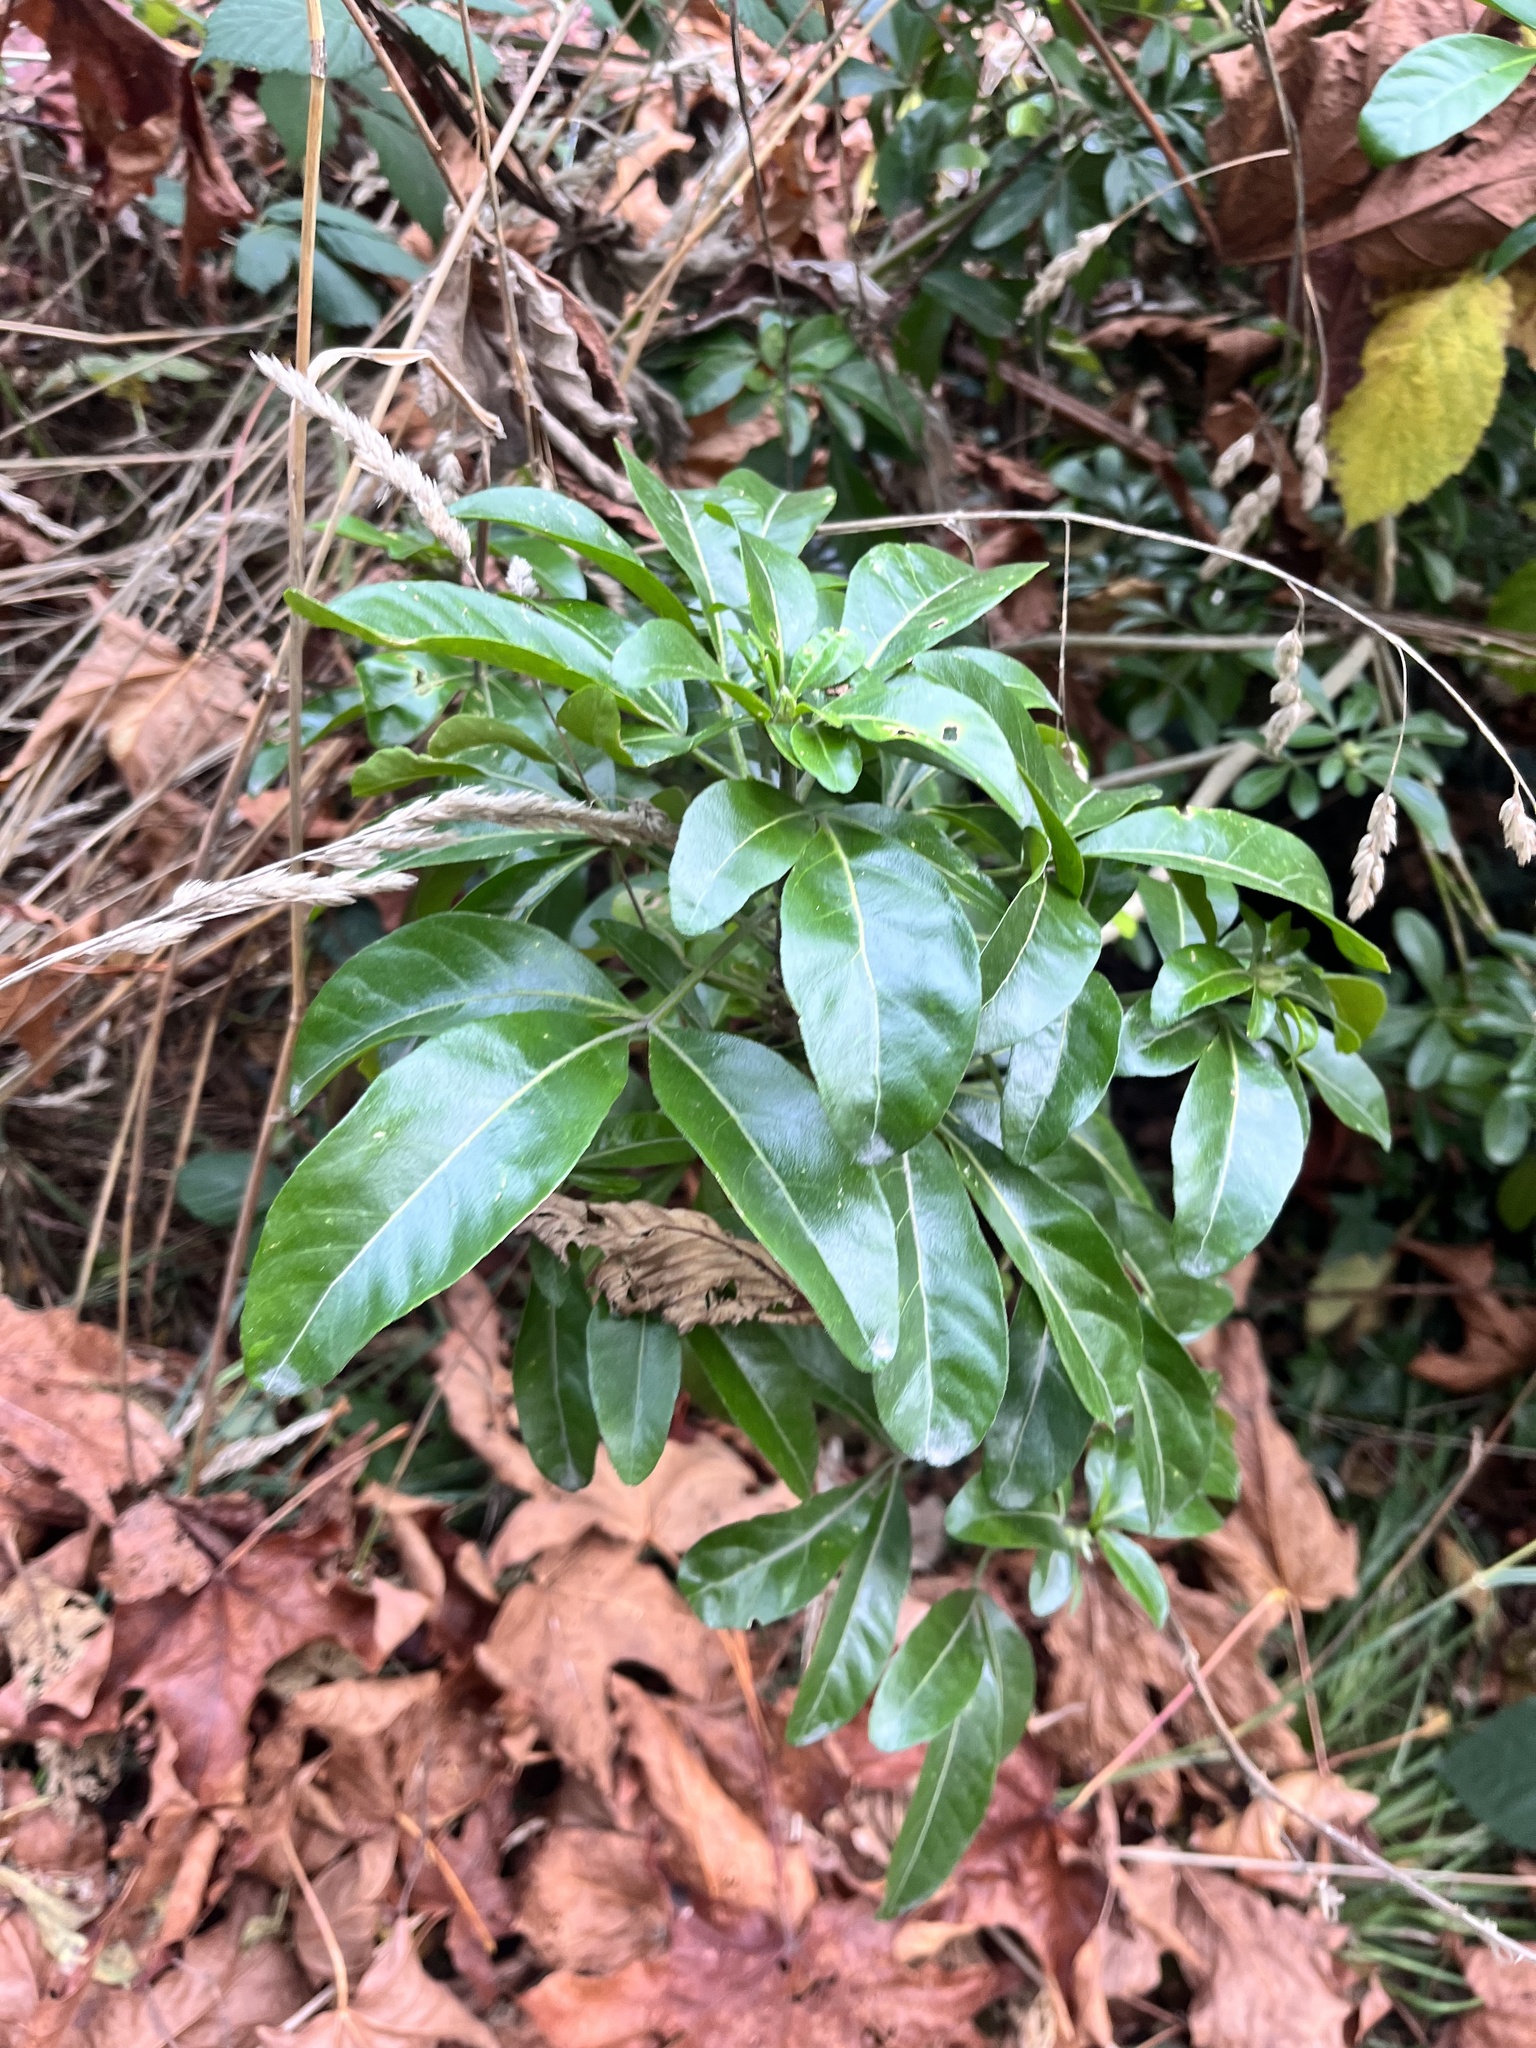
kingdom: Plantae
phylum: Tracheophyta
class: Magnoliopsida
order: Malvales
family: Thymelaeaceae
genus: Daphne
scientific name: Daphne laureola
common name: Spurge-laurel
